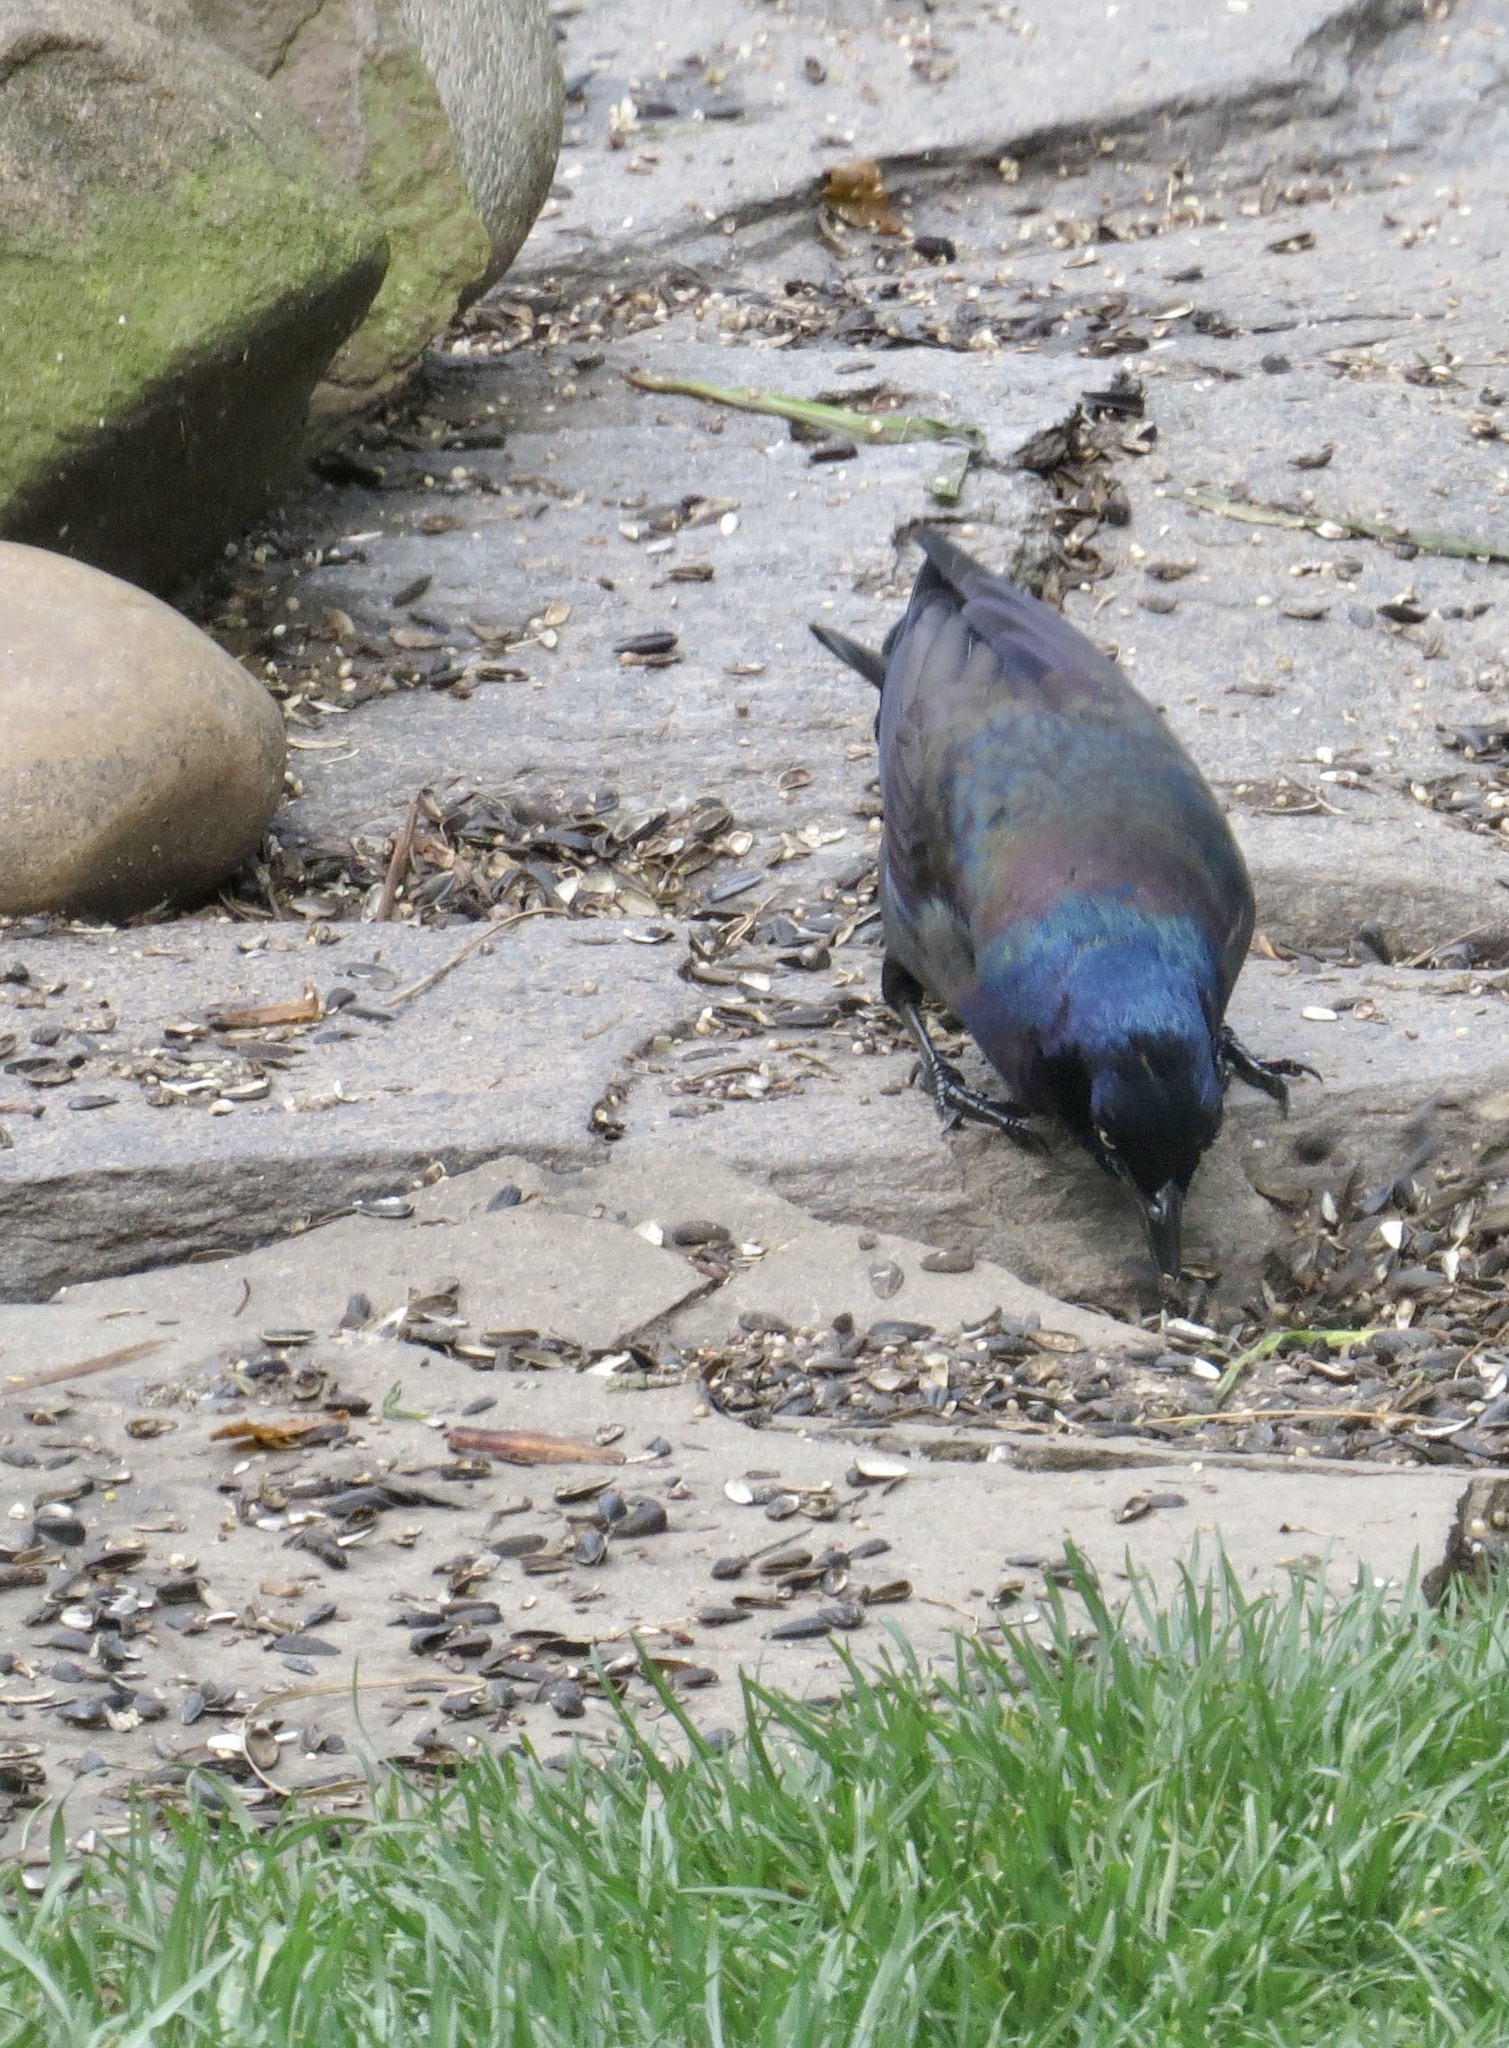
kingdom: Animalia
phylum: Chordata
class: Aves
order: Passeriformes
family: Icteridae
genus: Quiscalus
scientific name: Quiscalus quiscula
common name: Common grackle
